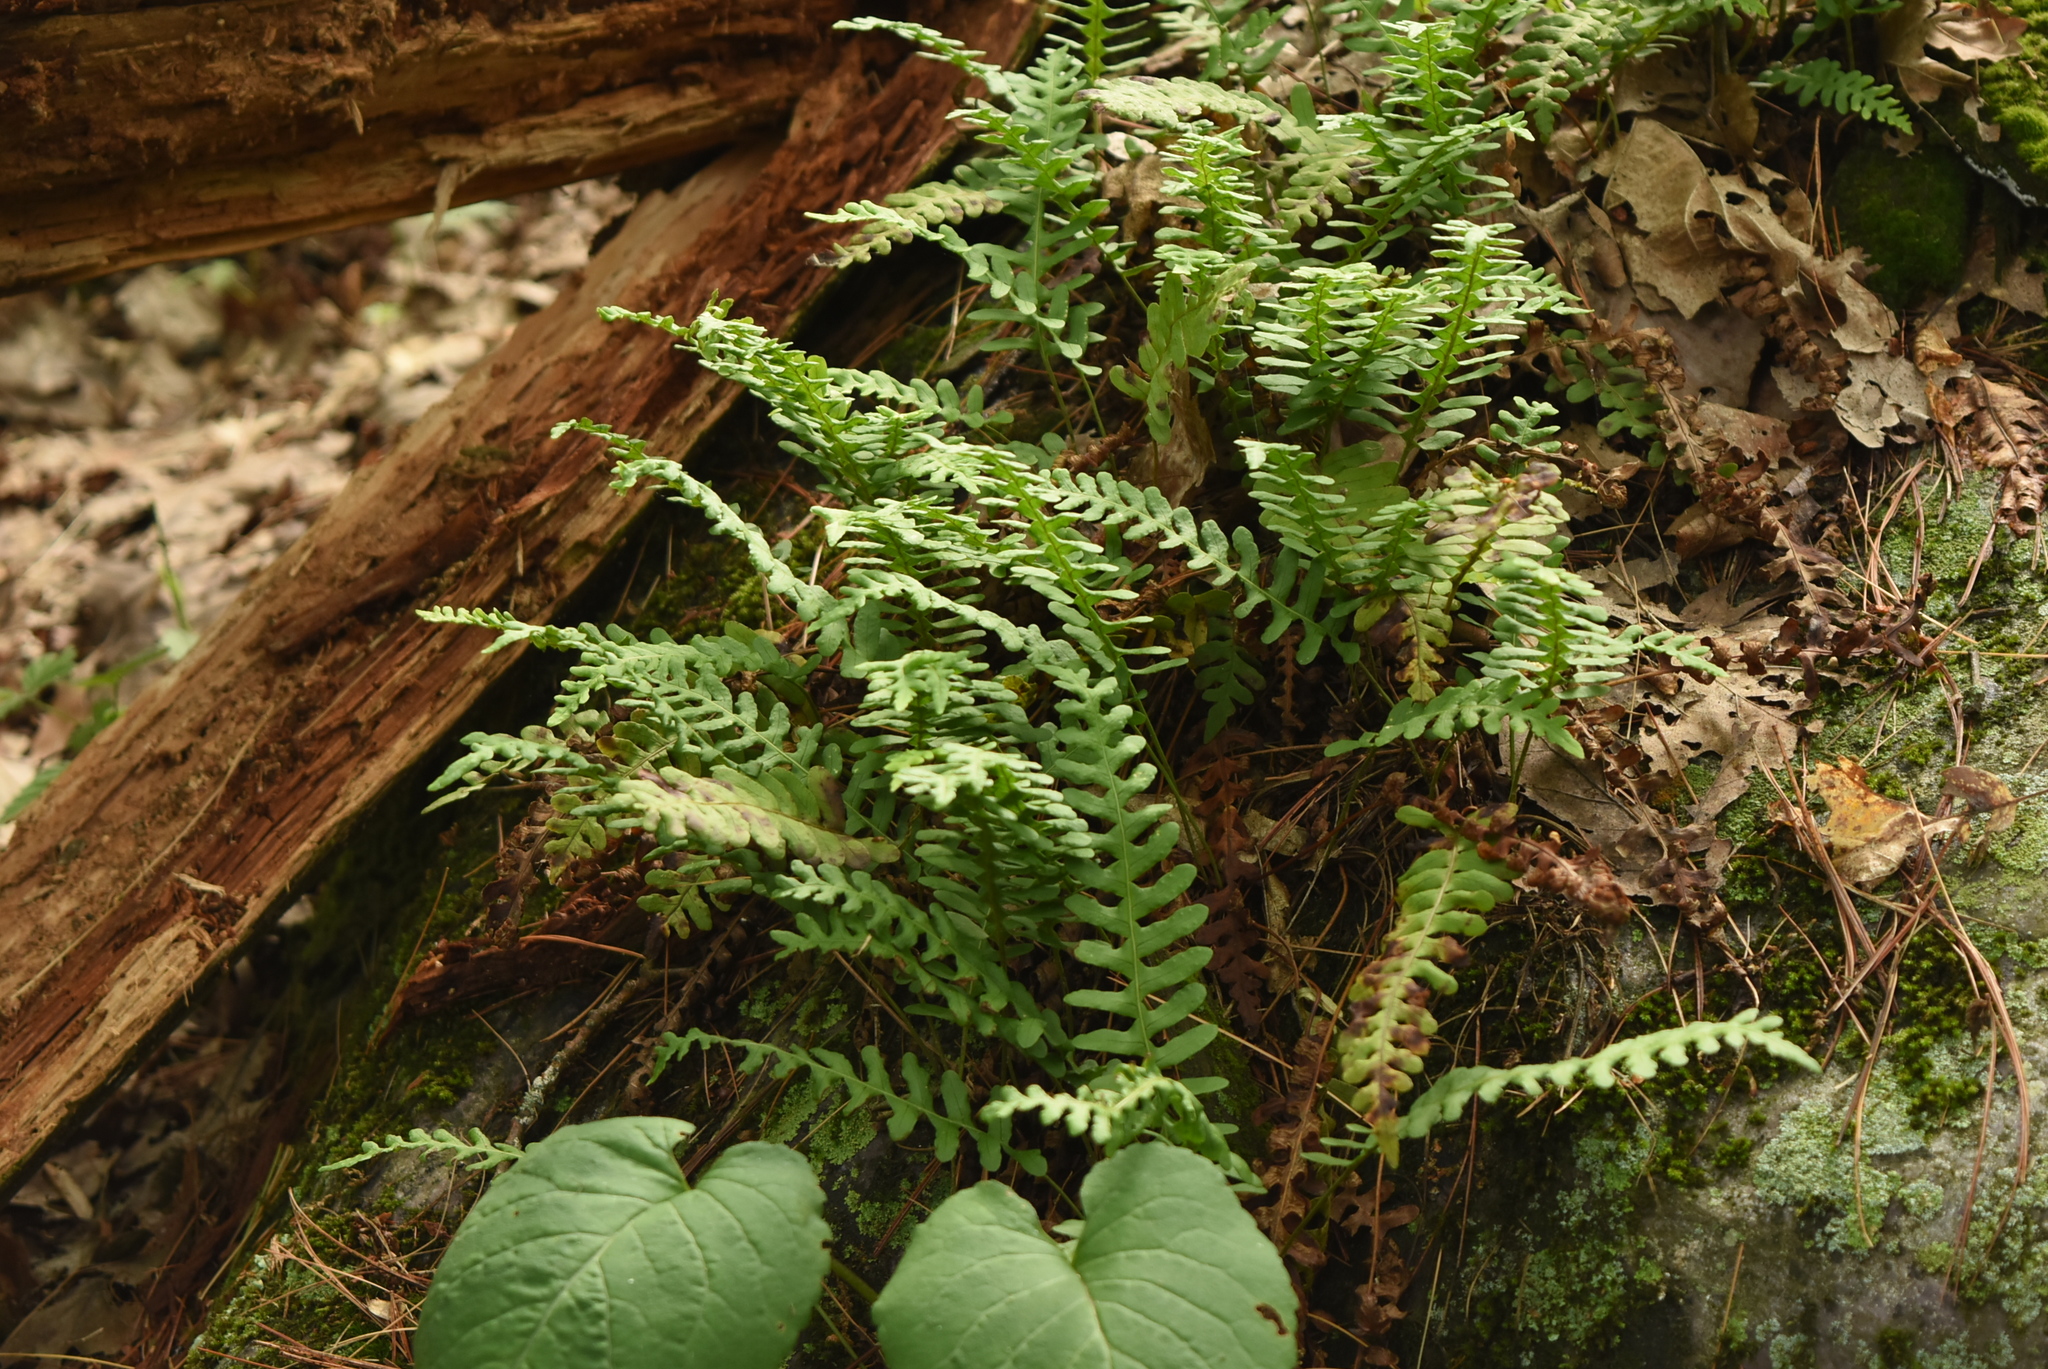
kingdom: Plantae
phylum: Tracheophyta
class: Polypodiopsida
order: Polypodiales
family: Polypodiaceae
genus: Polypodium
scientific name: Polypodium virginianum
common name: American wall fern
